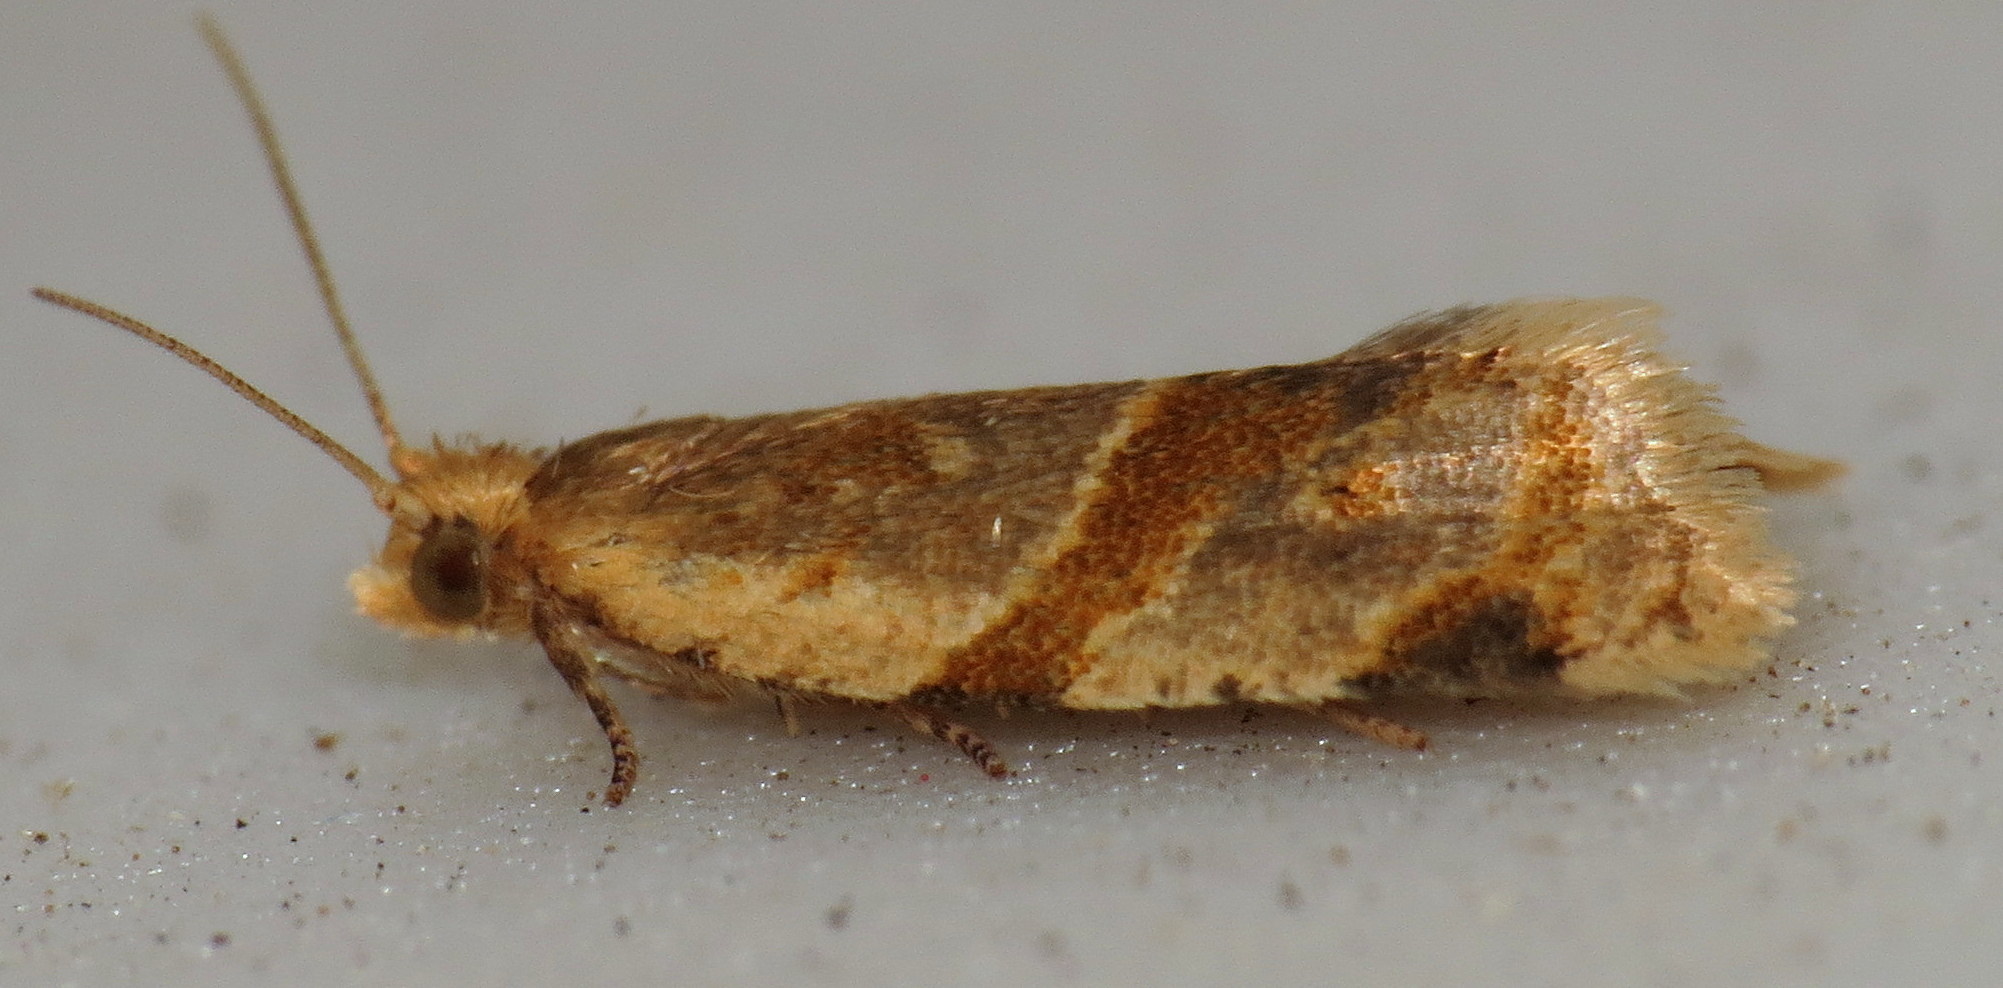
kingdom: Animalia
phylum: Arthropoda
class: Insecta
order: Lepidoptera
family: Tortricidae
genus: Clepsis
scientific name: Clepsis peritana
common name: Garden tortrix
